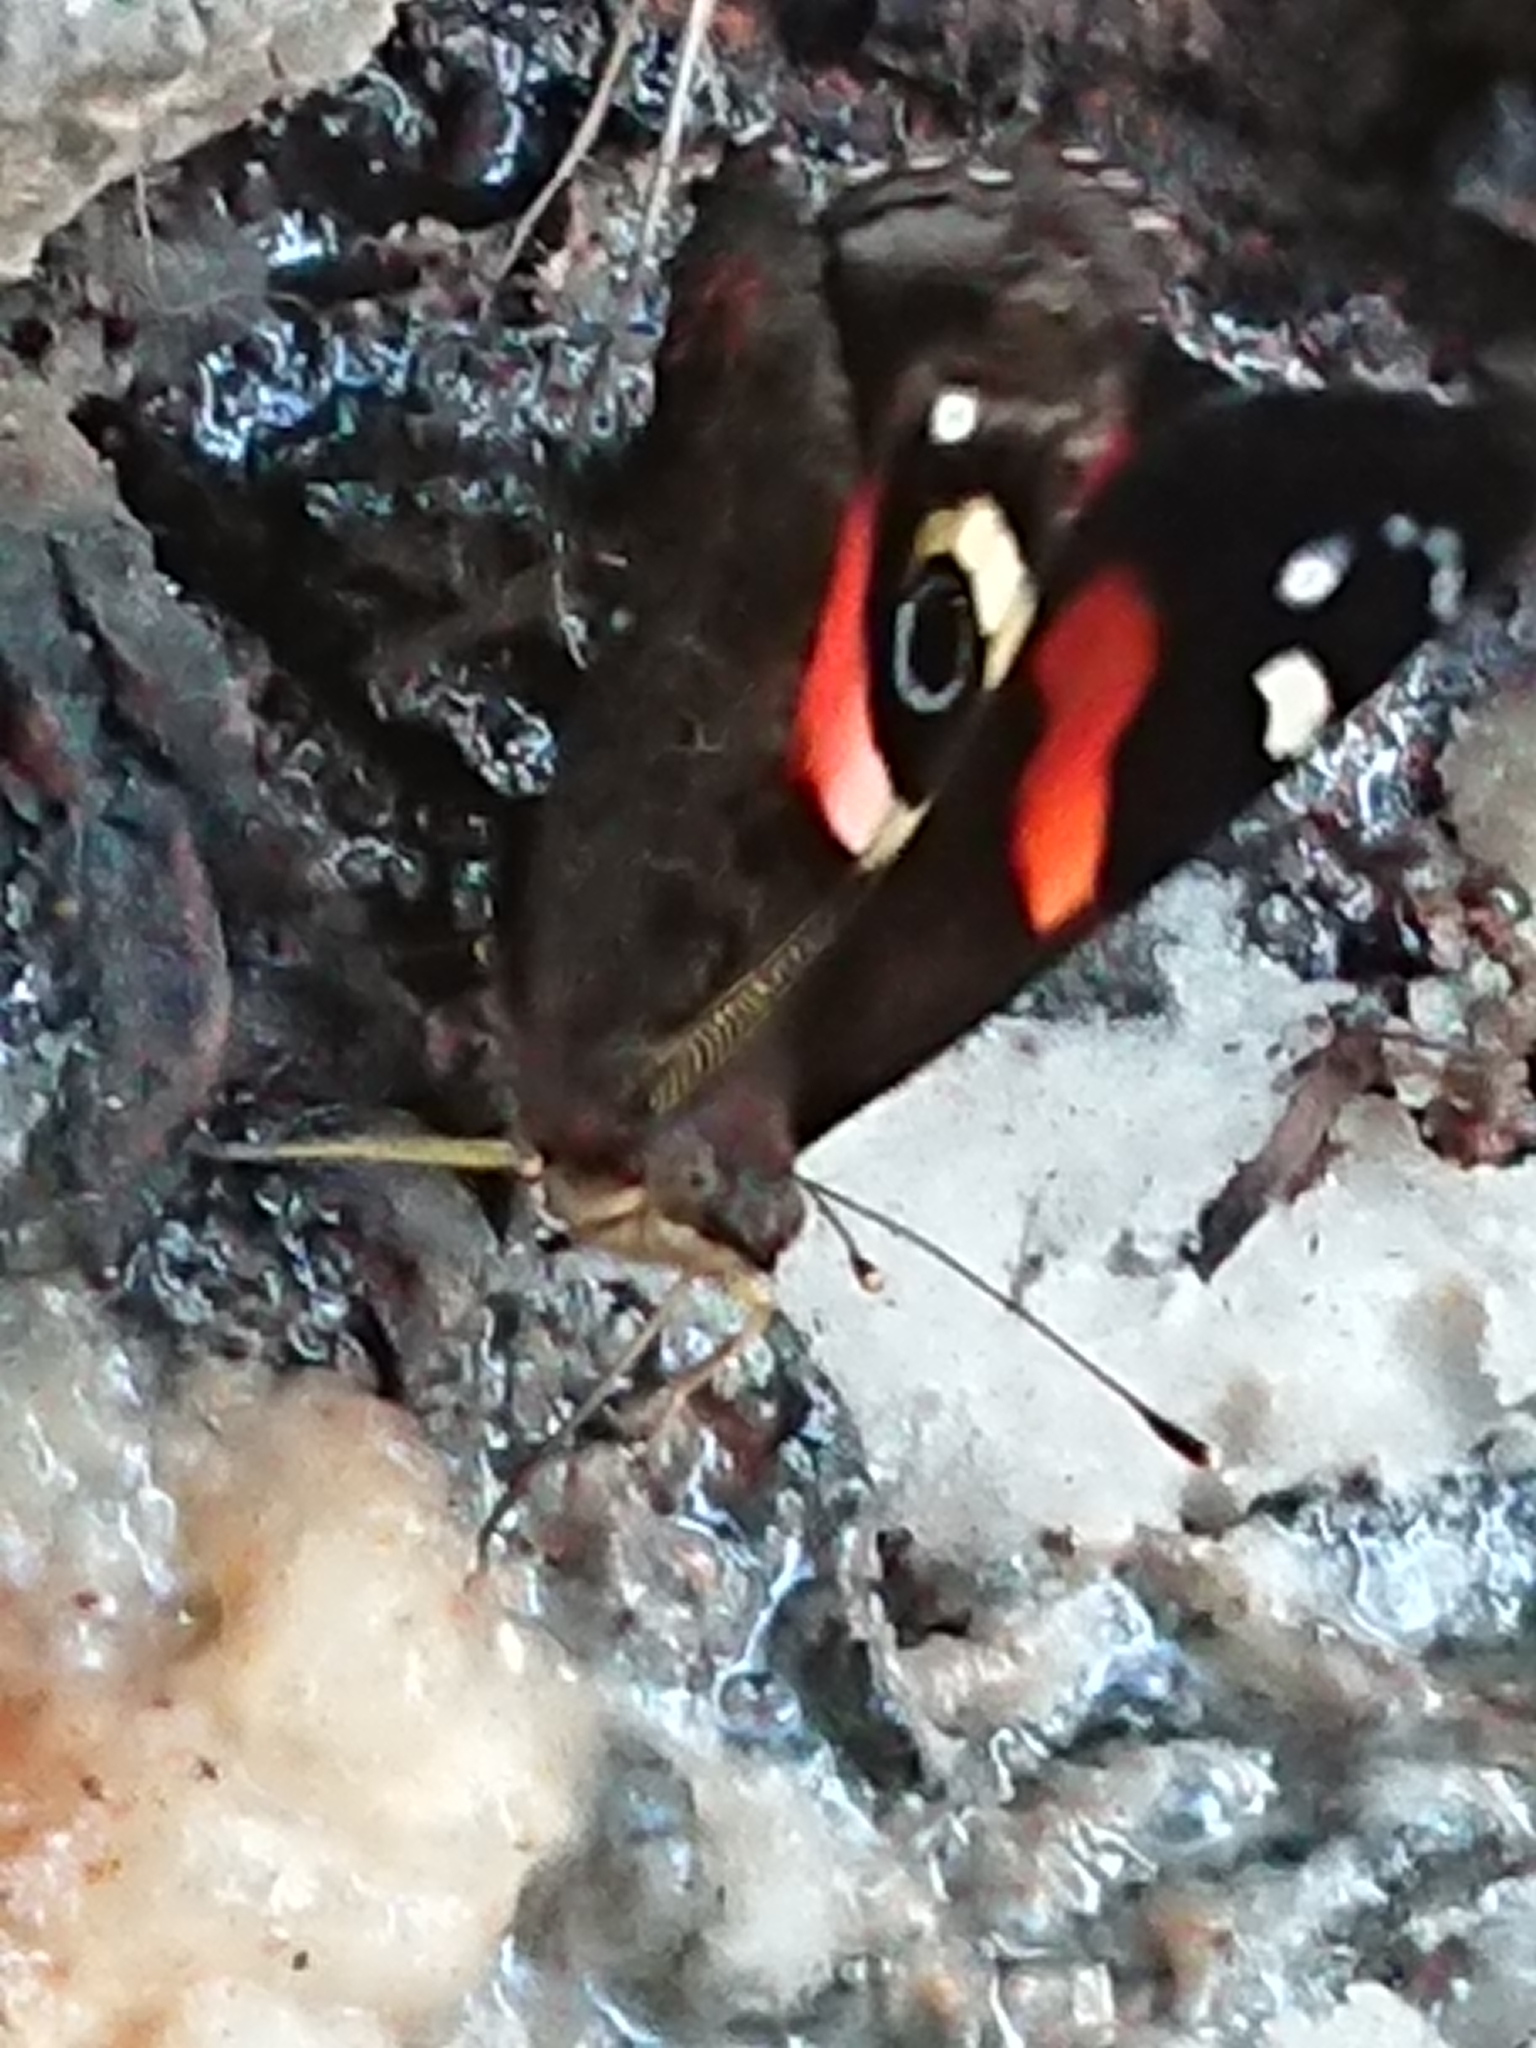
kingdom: Animalia
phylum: Arthropoda
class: Insecta
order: Lepidoptera
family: Nymphalidae
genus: Vanessa
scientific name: Vanessa gonerilla
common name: New zealand red admiral
